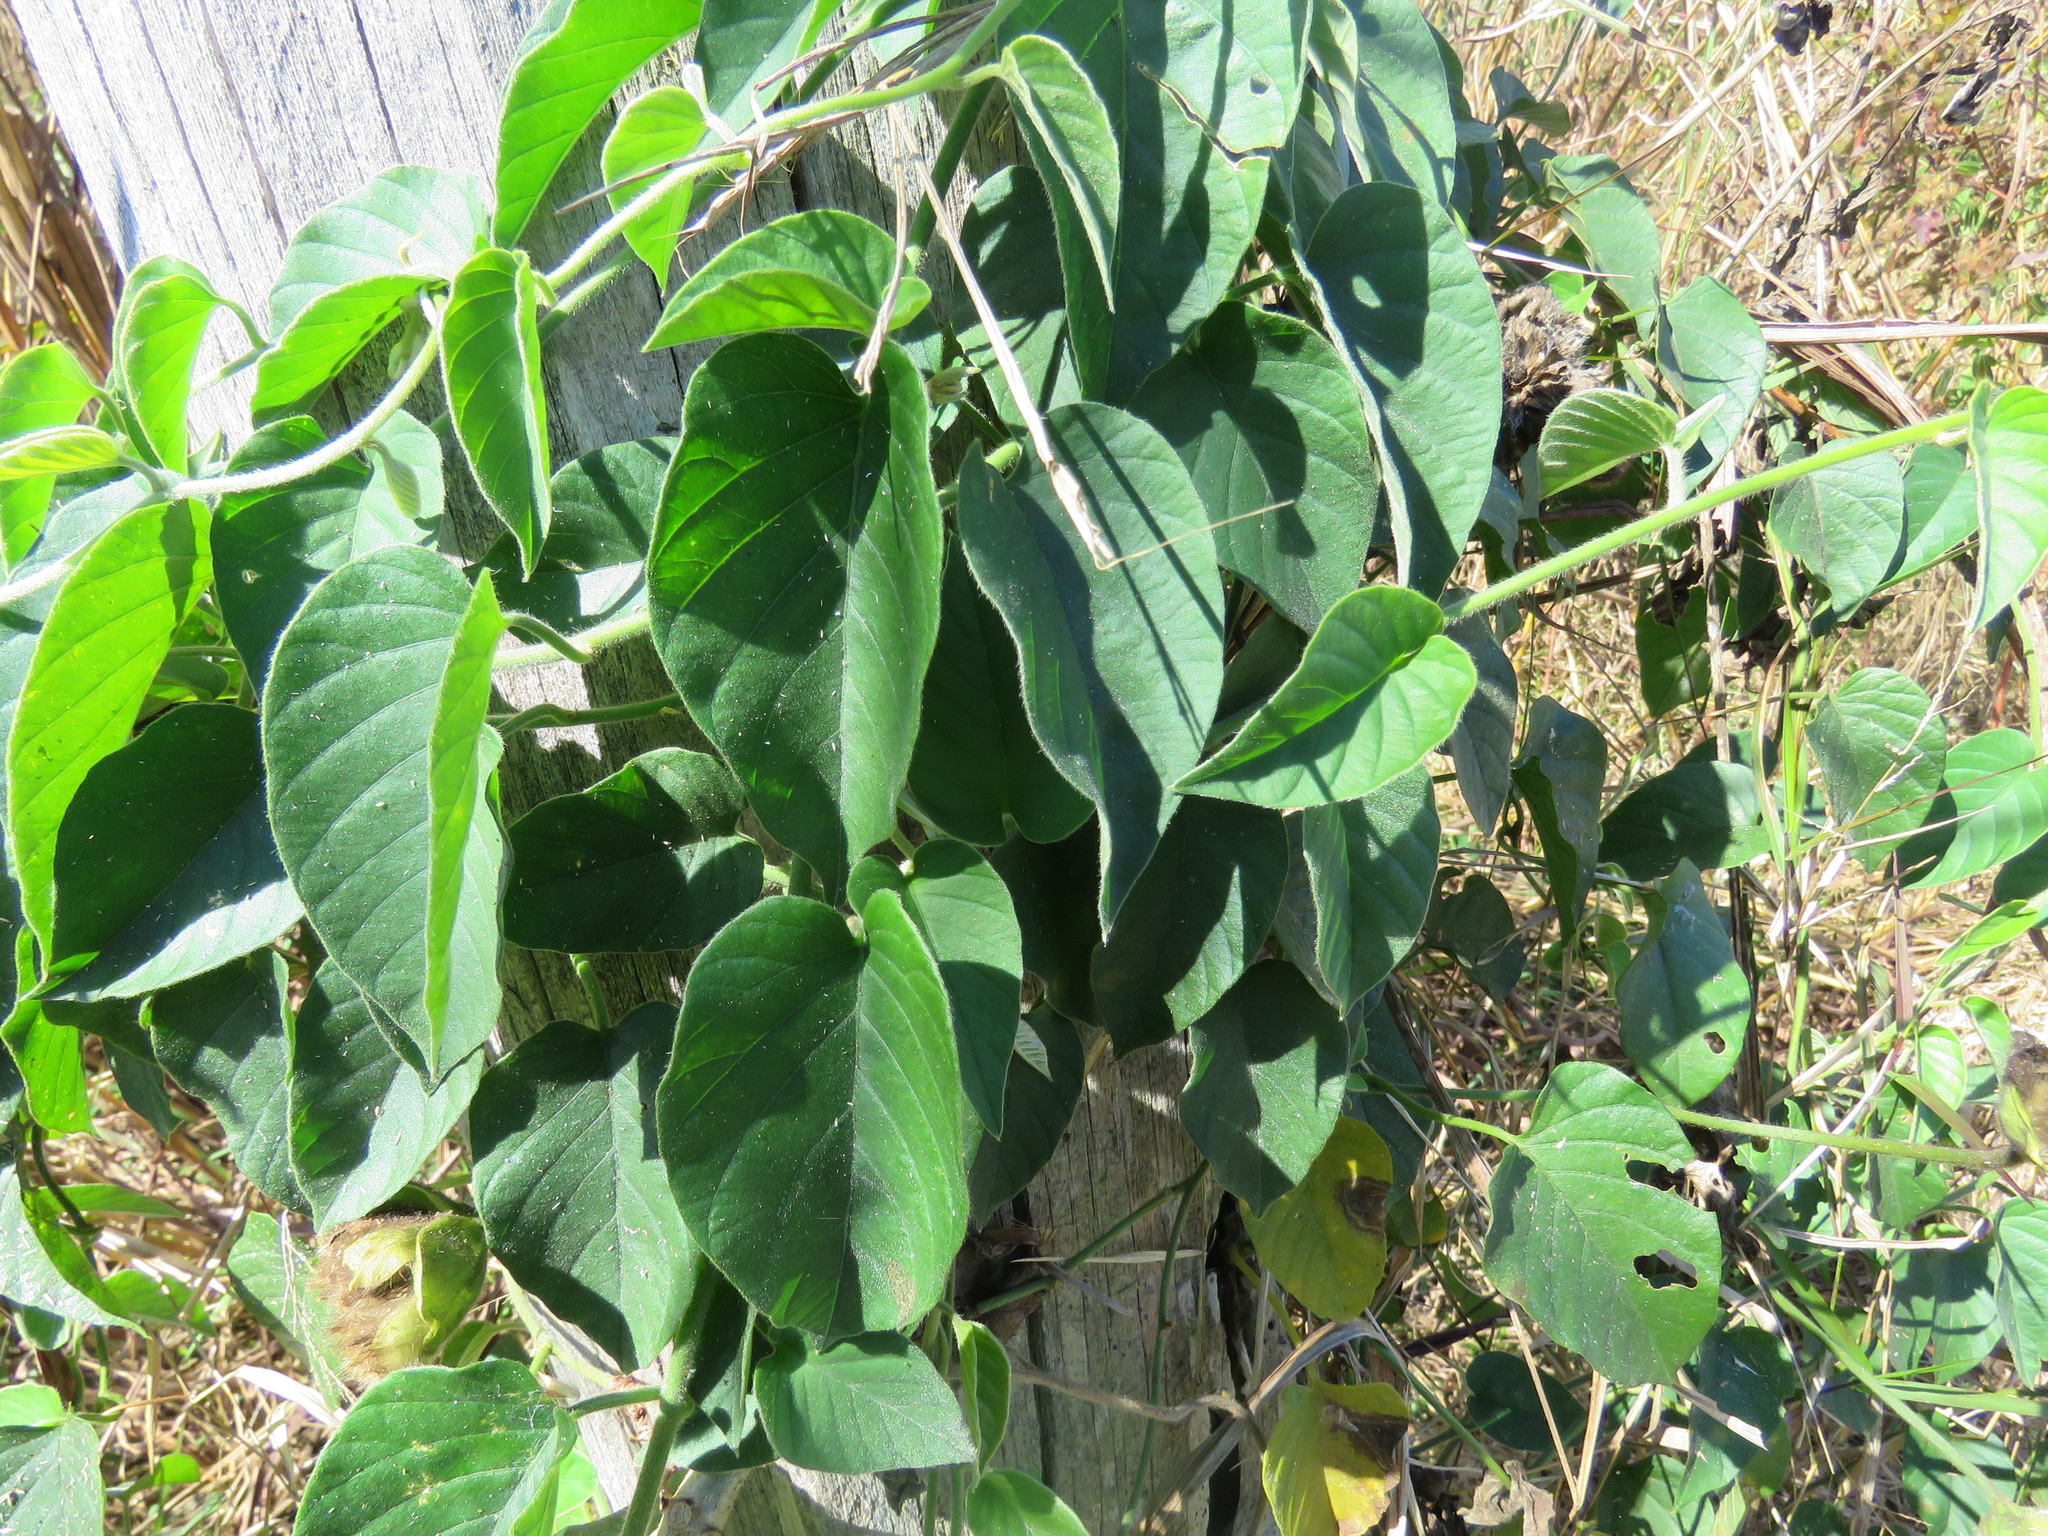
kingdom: Plantae
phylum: Tracheophyta
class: Magnoliopsida
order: Solanales
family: Convolvulaceae
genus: Odonellia
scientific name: Odonellia hirtiflora
